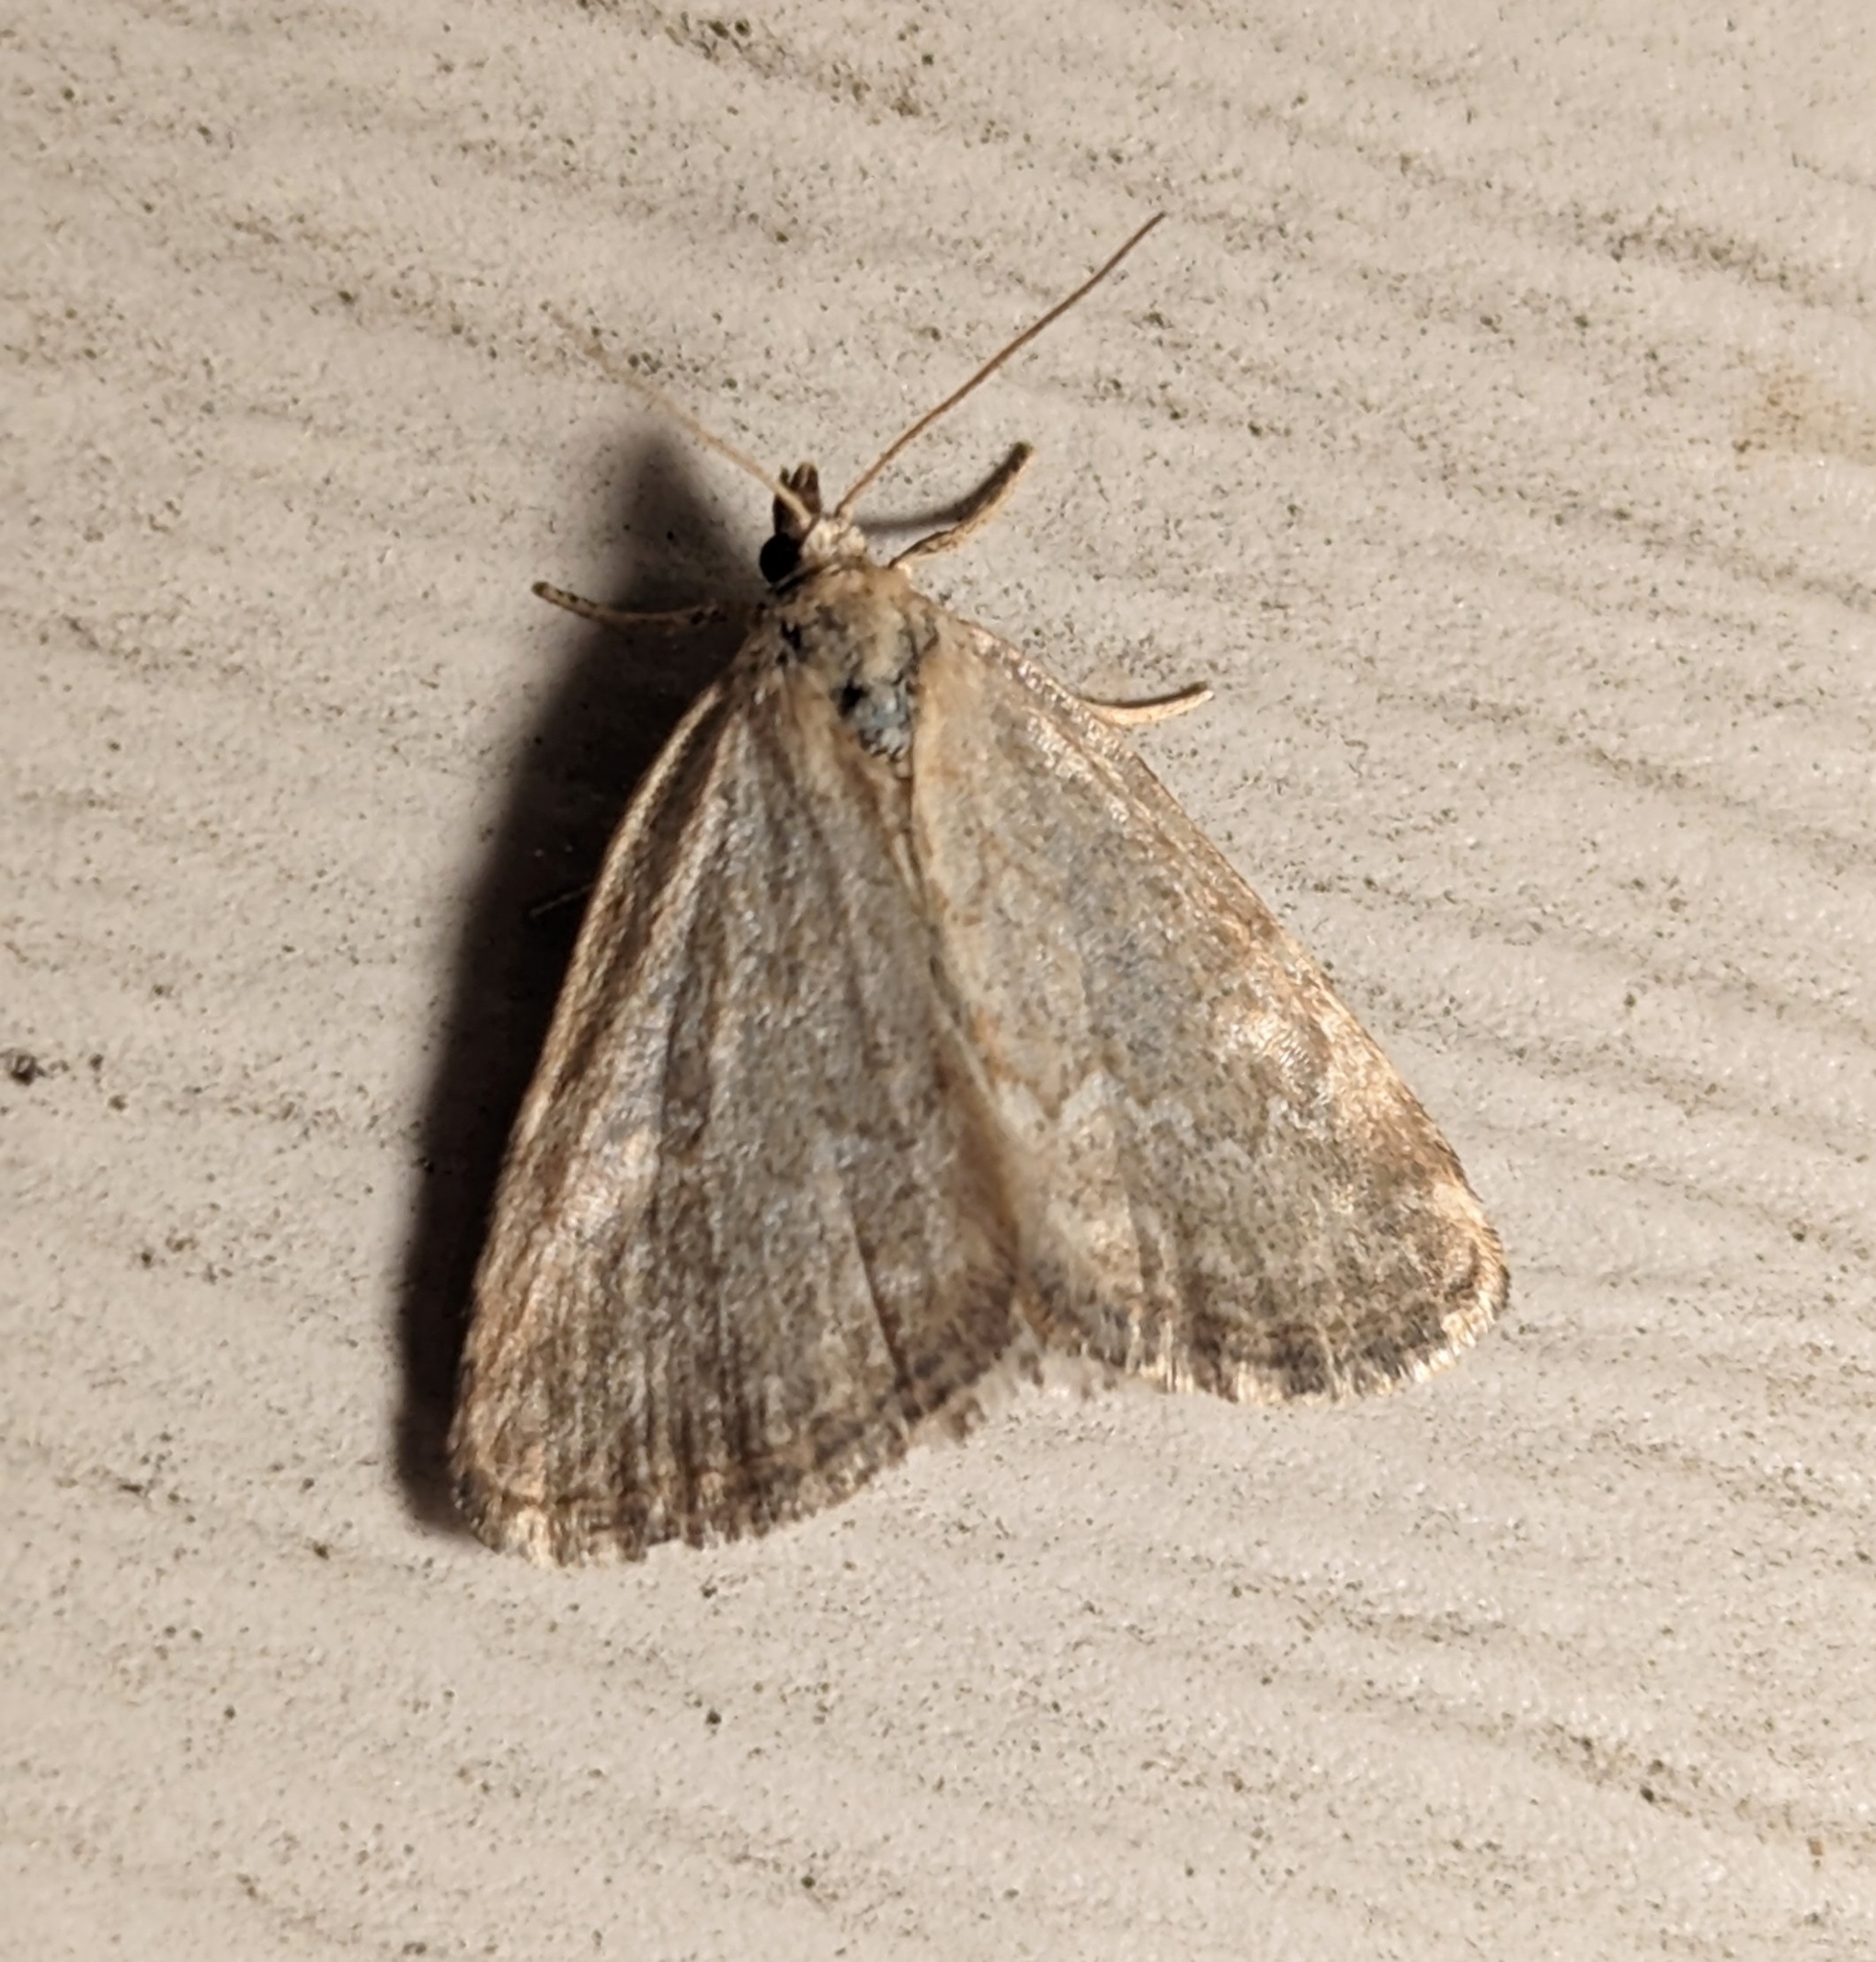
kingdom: Animalia
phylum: Arthropoda
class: Insecta
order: Lepidoptera
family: Noctuidae
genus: Protodeltote
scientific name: Protodeltote albidula
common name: Pale glyph
